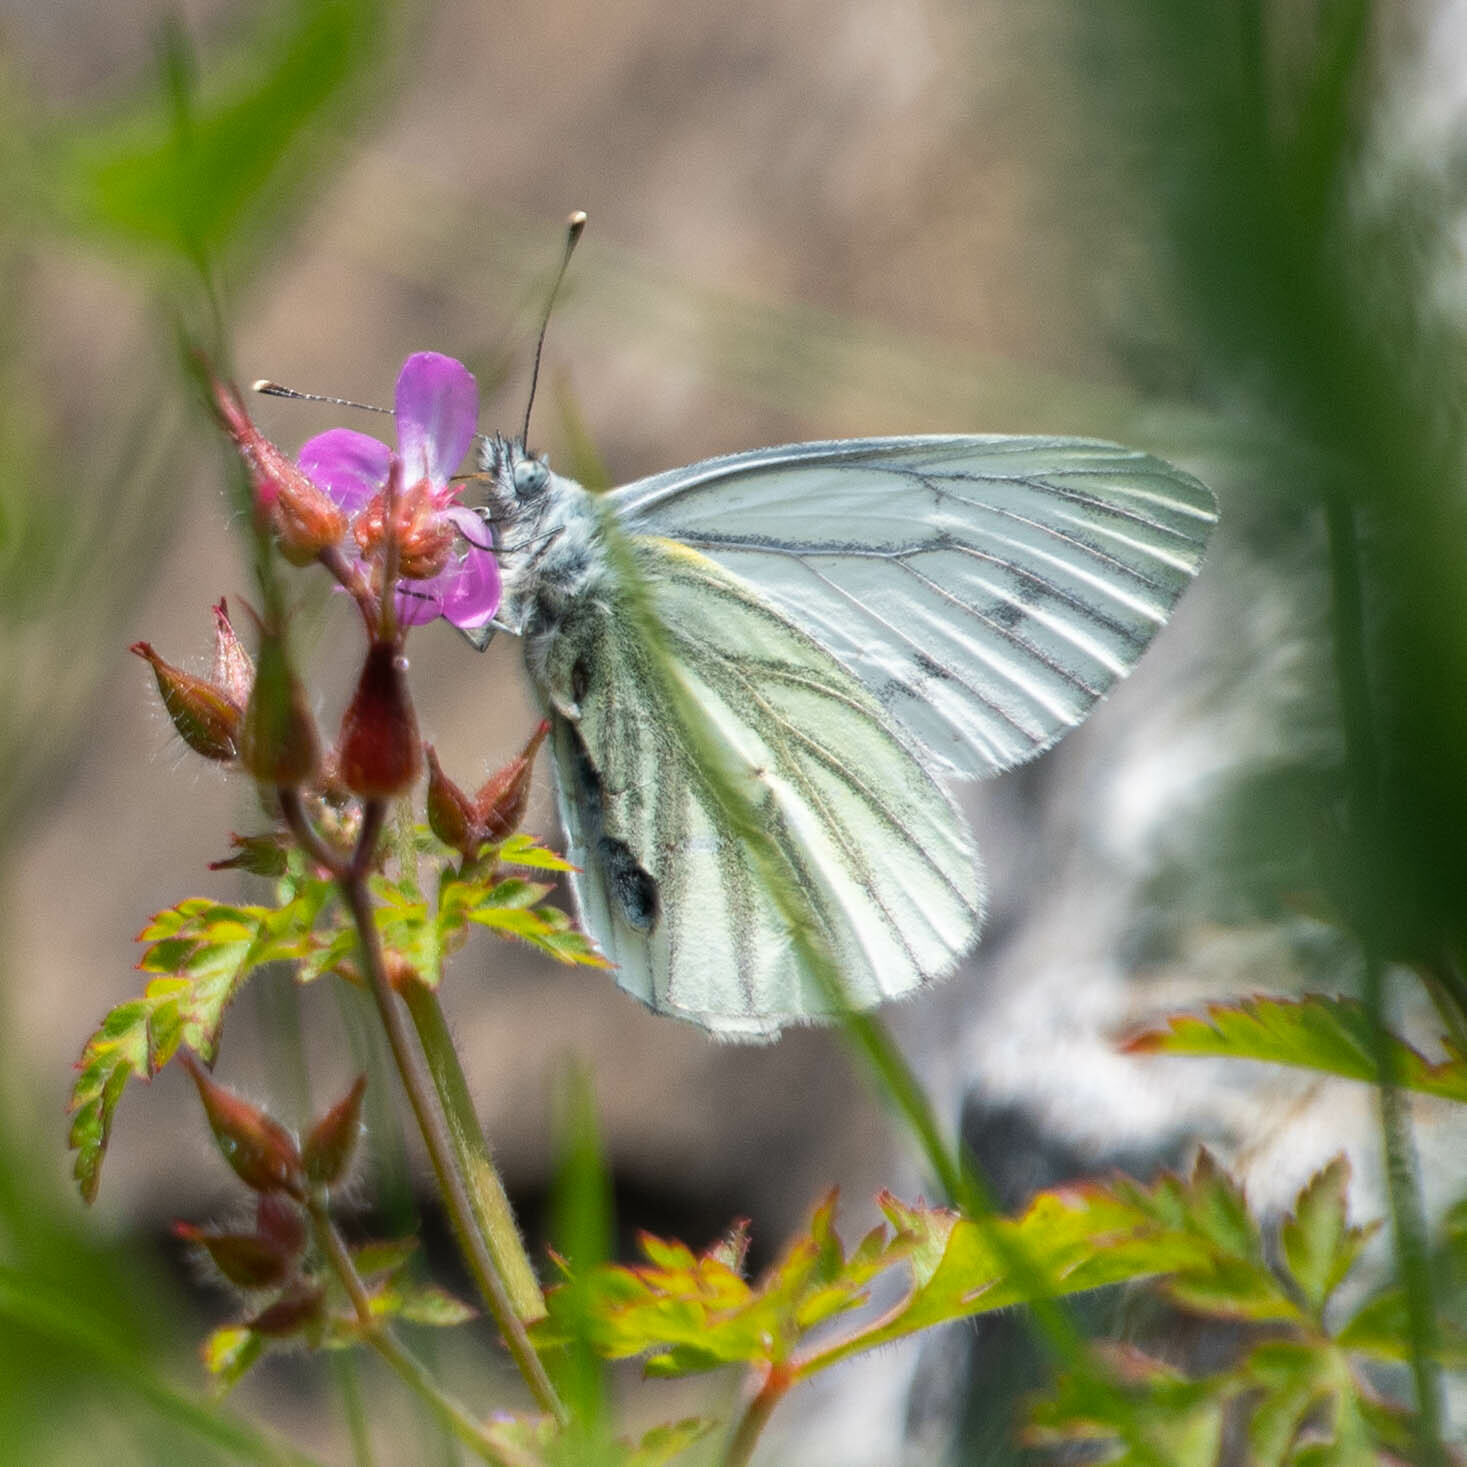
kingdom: Animalia
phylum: Arthropoda
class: Insecta
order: Lepidoptera
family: Pieridae
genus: Pieris
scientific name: Pieris napi
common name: Green-veined white
